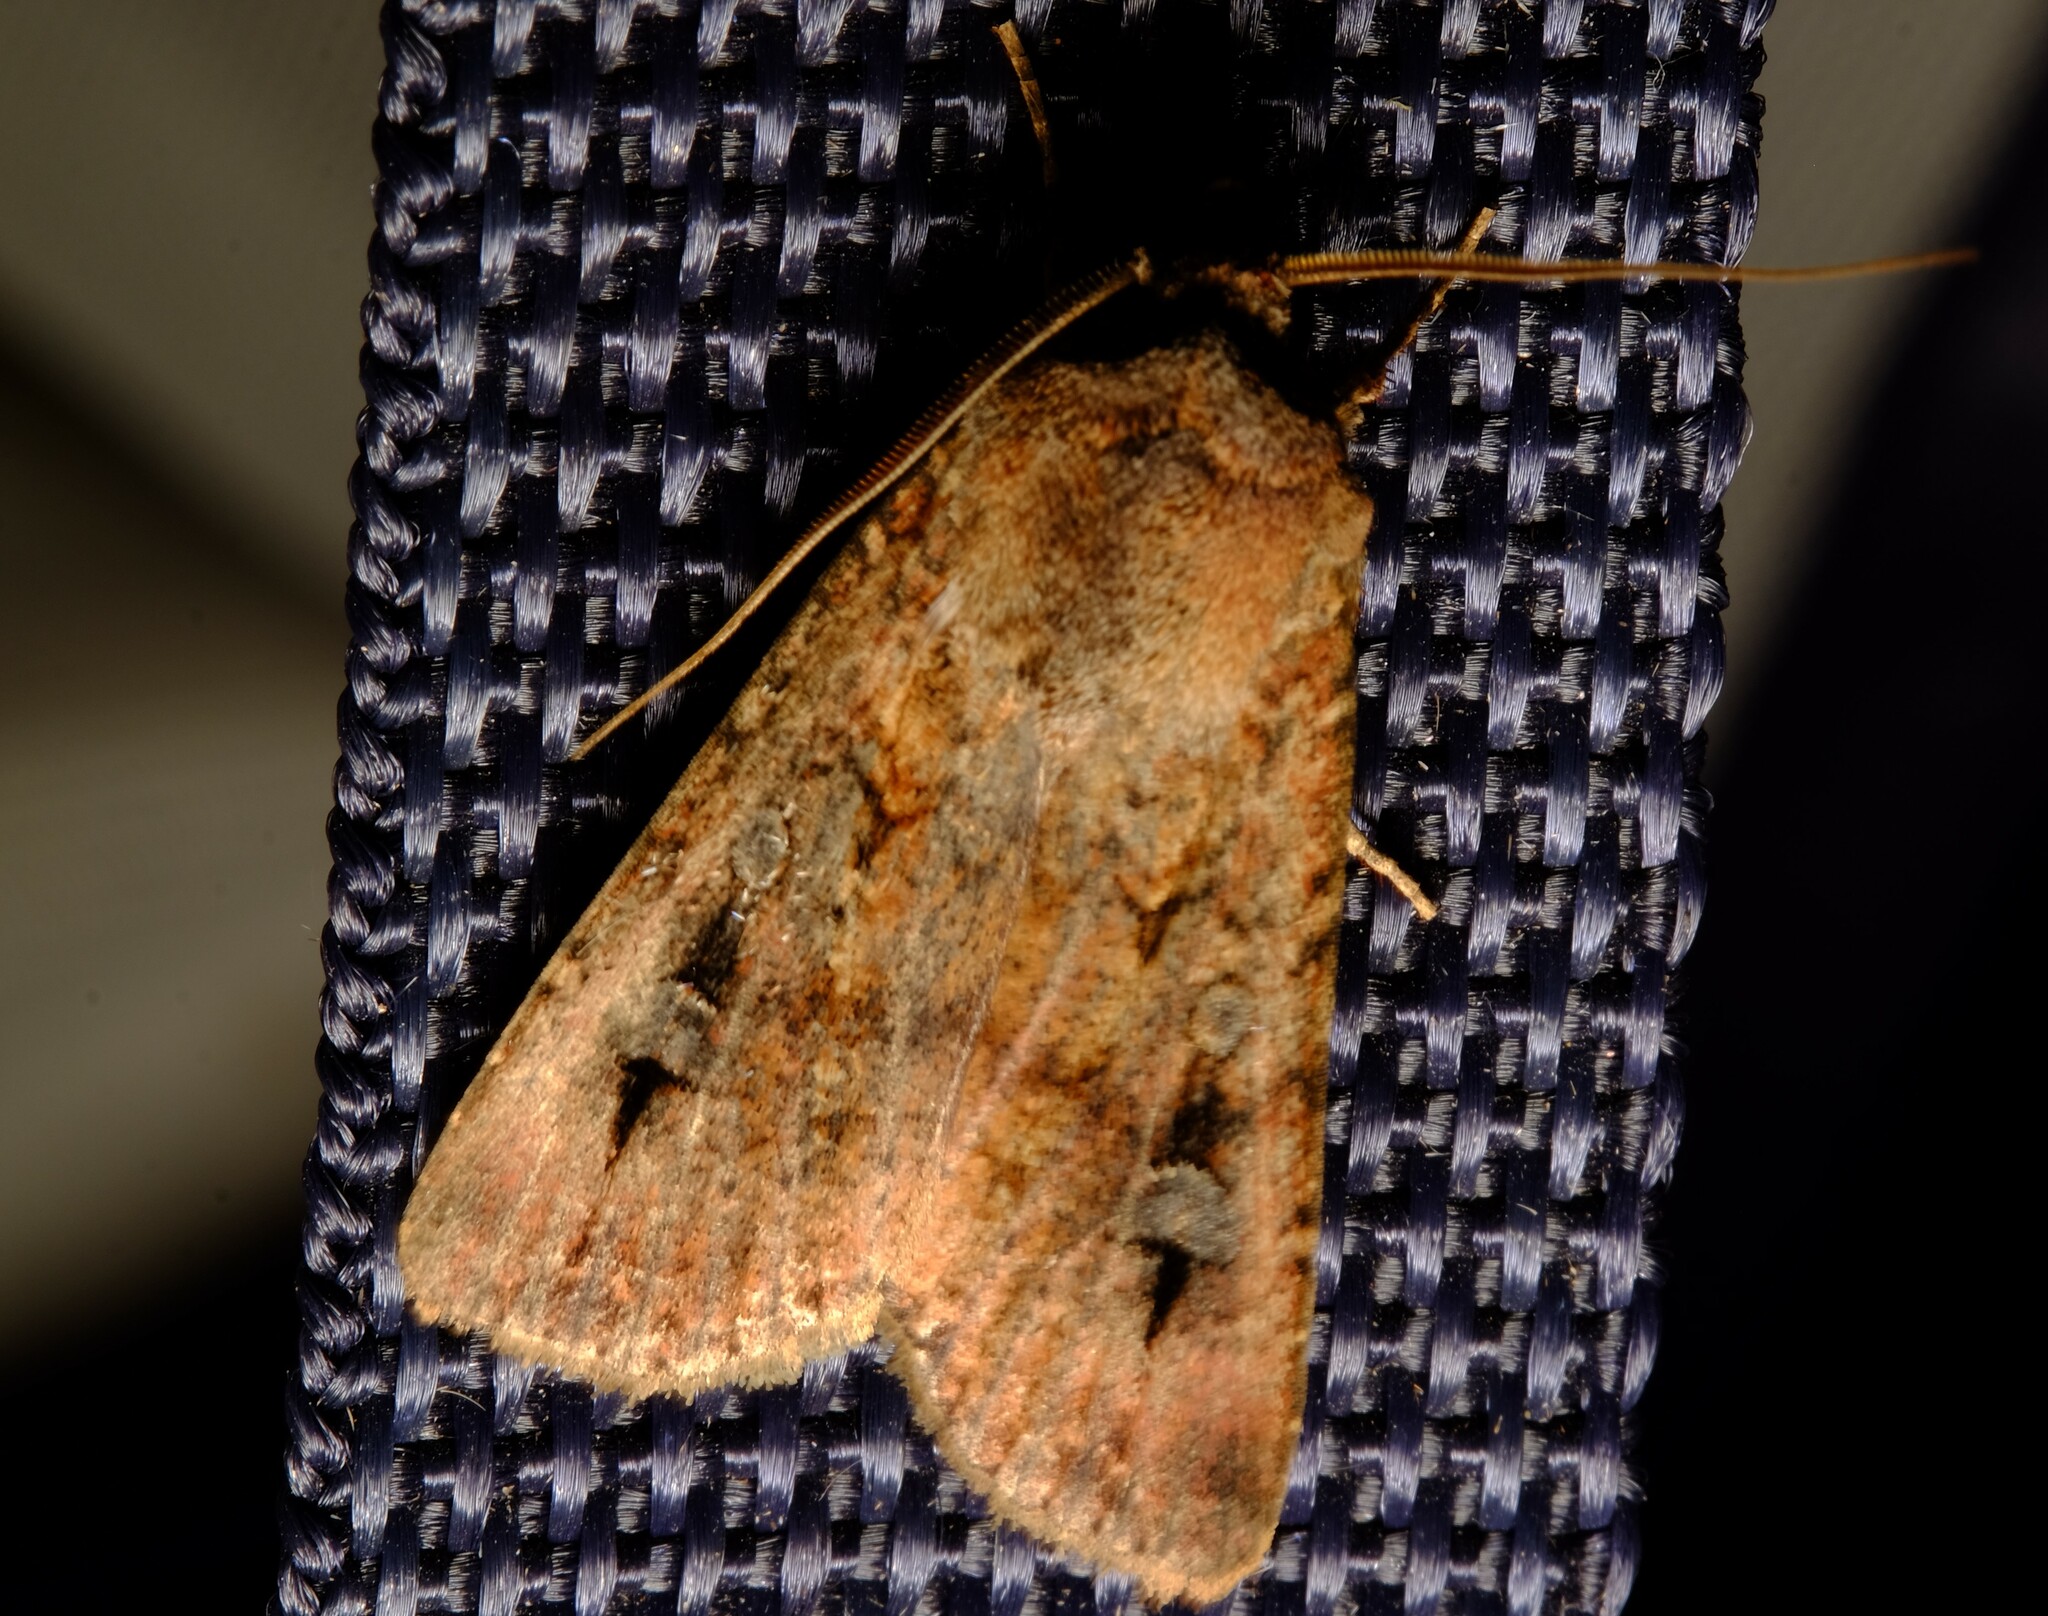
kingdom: Animalia
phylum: Arthropoda
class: Insecta
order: Lepidoptera
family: Noctuidae
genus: Agrotis
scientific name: Agrotis infusa
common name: Bogong moth
